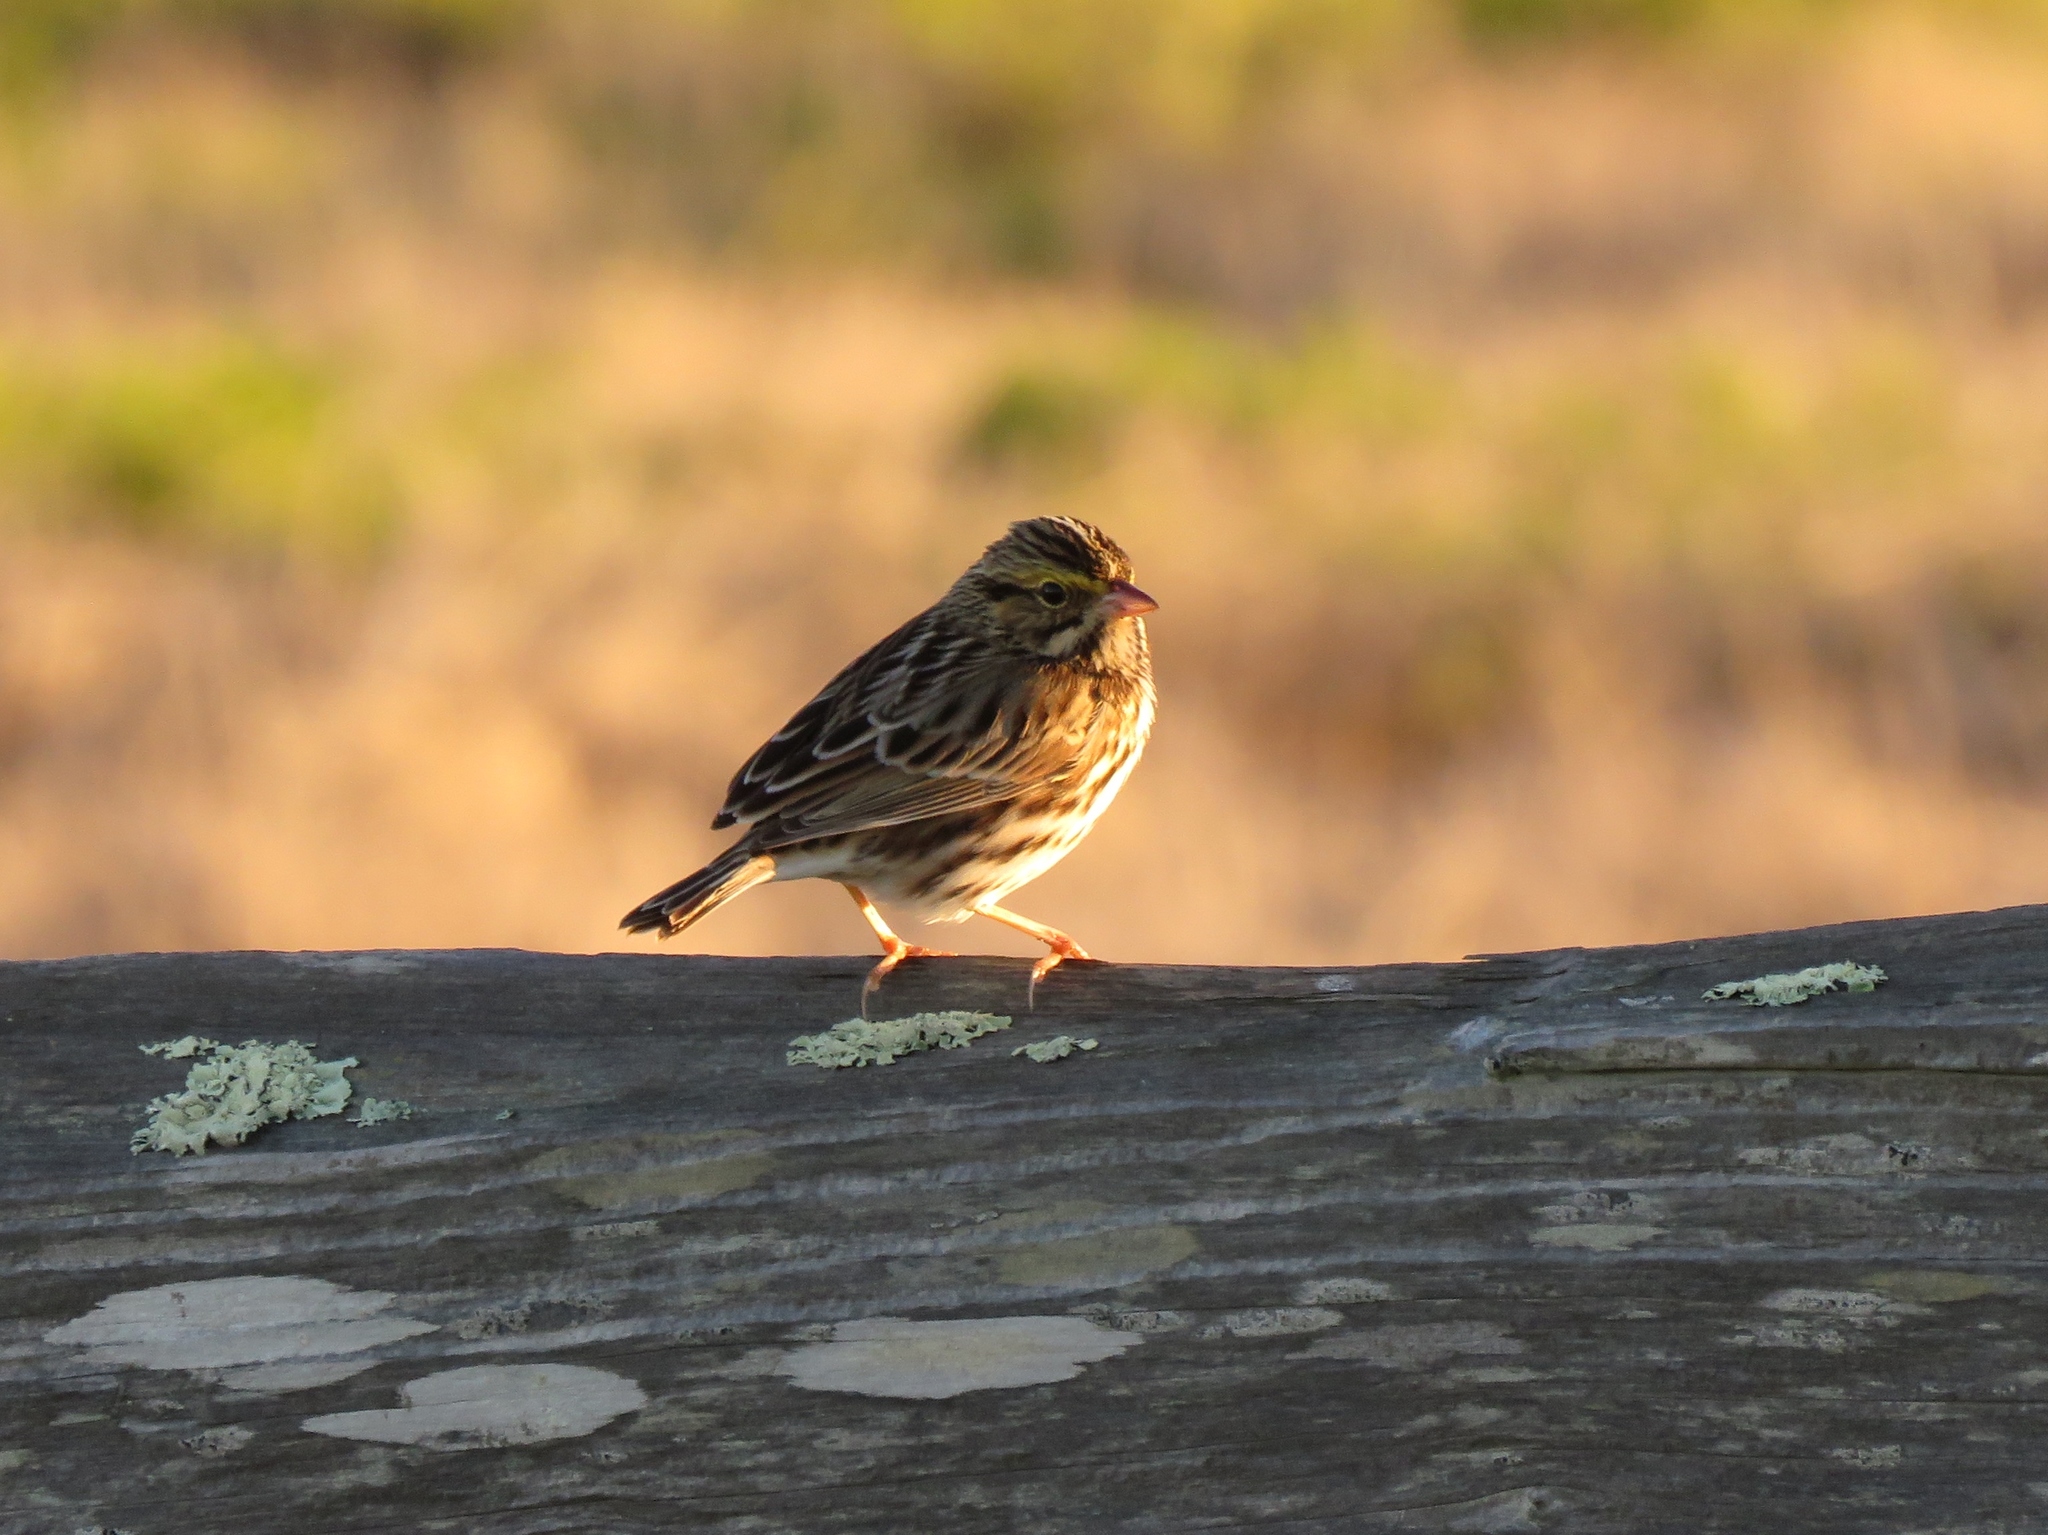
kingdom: Animalia
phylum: Chordata
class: Aves
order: Passeriformes
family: Passerellidae
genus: Passerculus
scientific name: Passerculus sandwichensis
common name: Savannah sparrow
